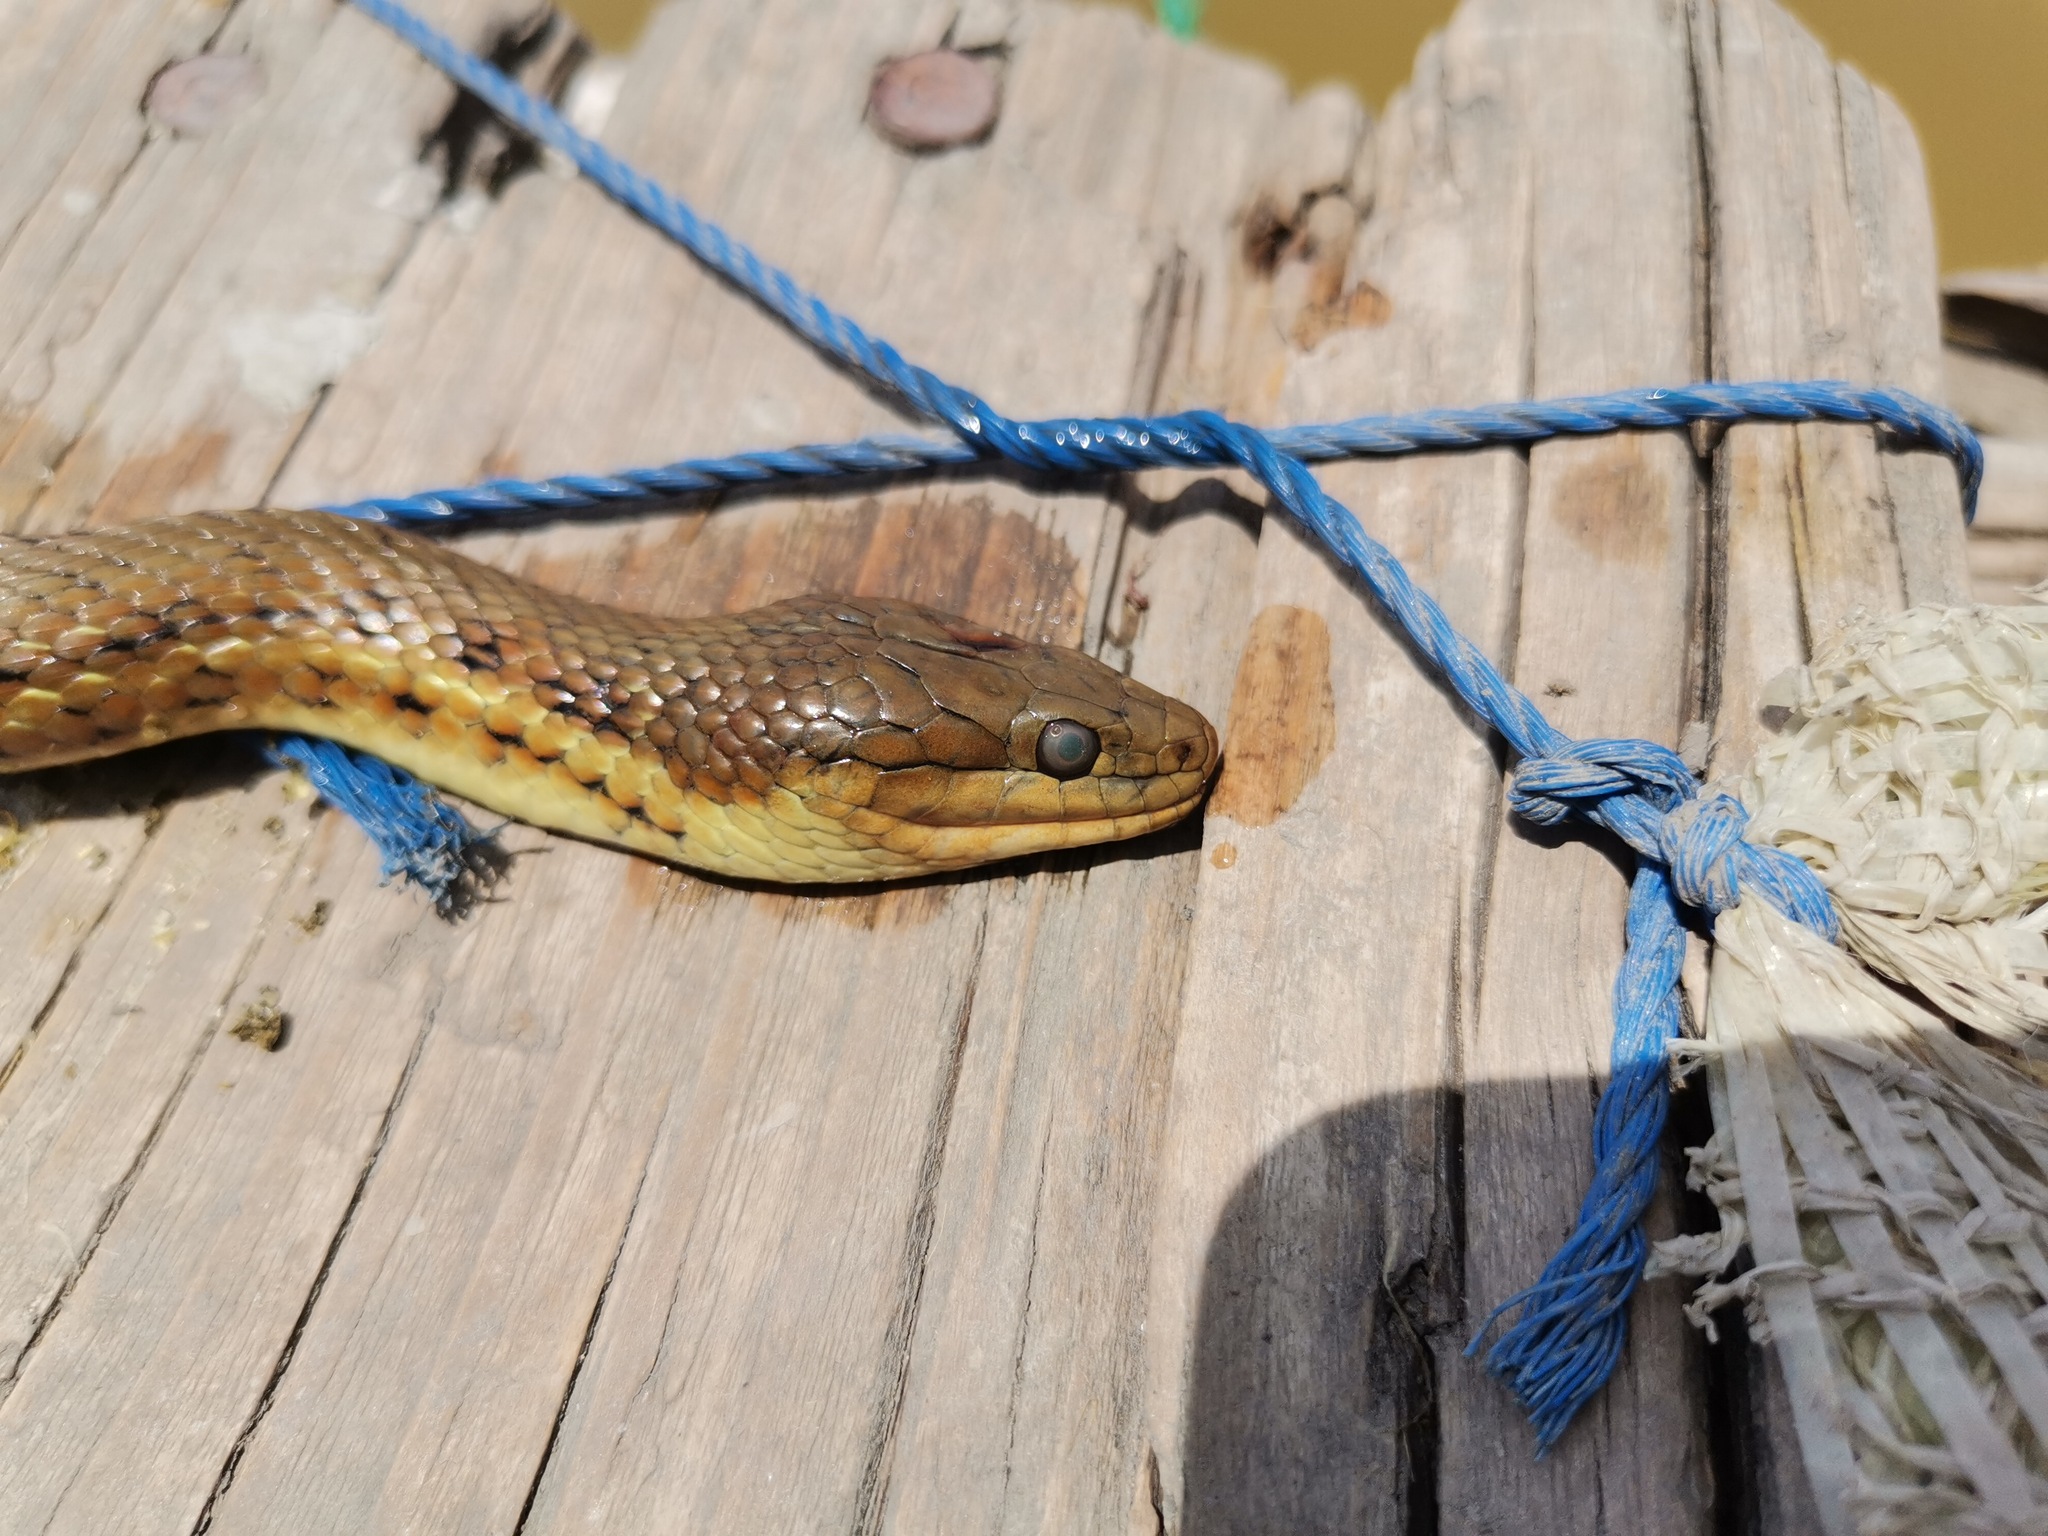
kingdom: Animalia
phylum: Chordata
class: Squamata
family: Colubridae
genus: Thamnophis
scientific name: Thamnophis melanogaster
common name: Blackbelly garter snake
